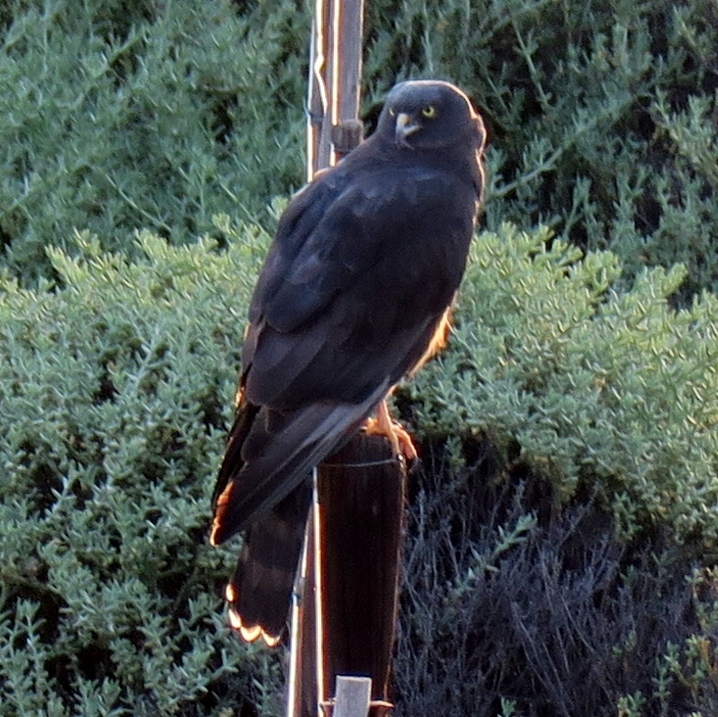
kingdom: Animalia
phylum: Chordata
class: Aves
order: Accipitriformes
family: Accipitridae
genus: Circus
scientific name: Circus maurus
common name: Black harrier
